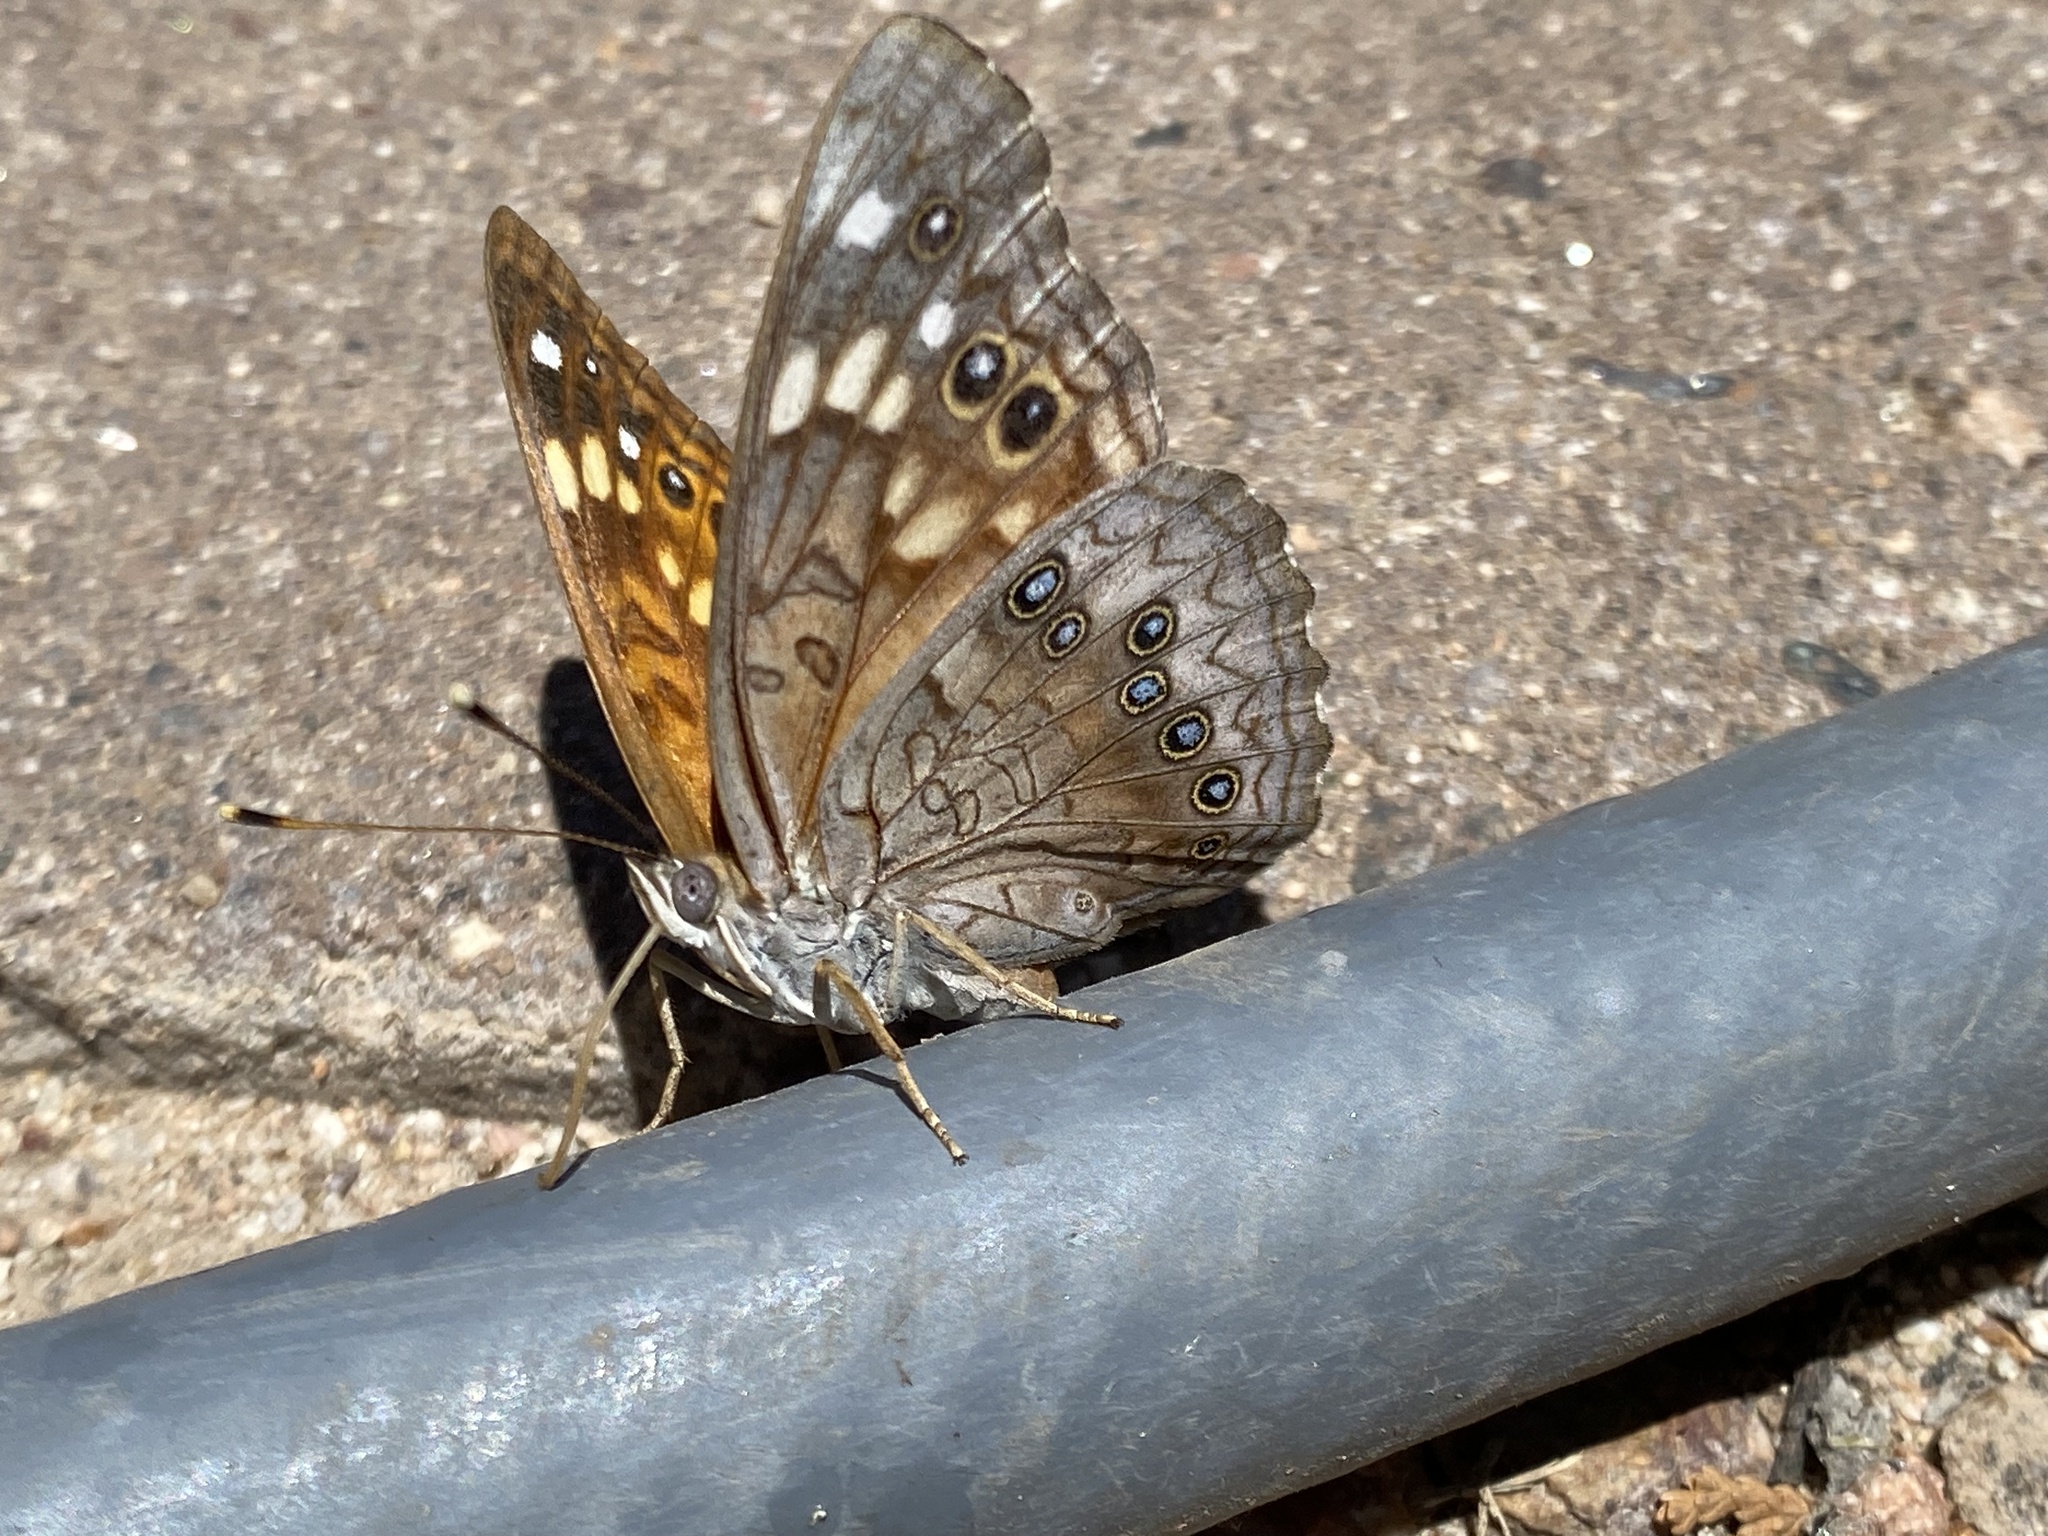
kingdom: Animalia
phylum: Arthropoda
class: Insecta
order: Lepidoptera
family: Nymphalidae
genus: Asterocampa
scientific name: Asterocampa celtis
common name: Hackberry emperor
